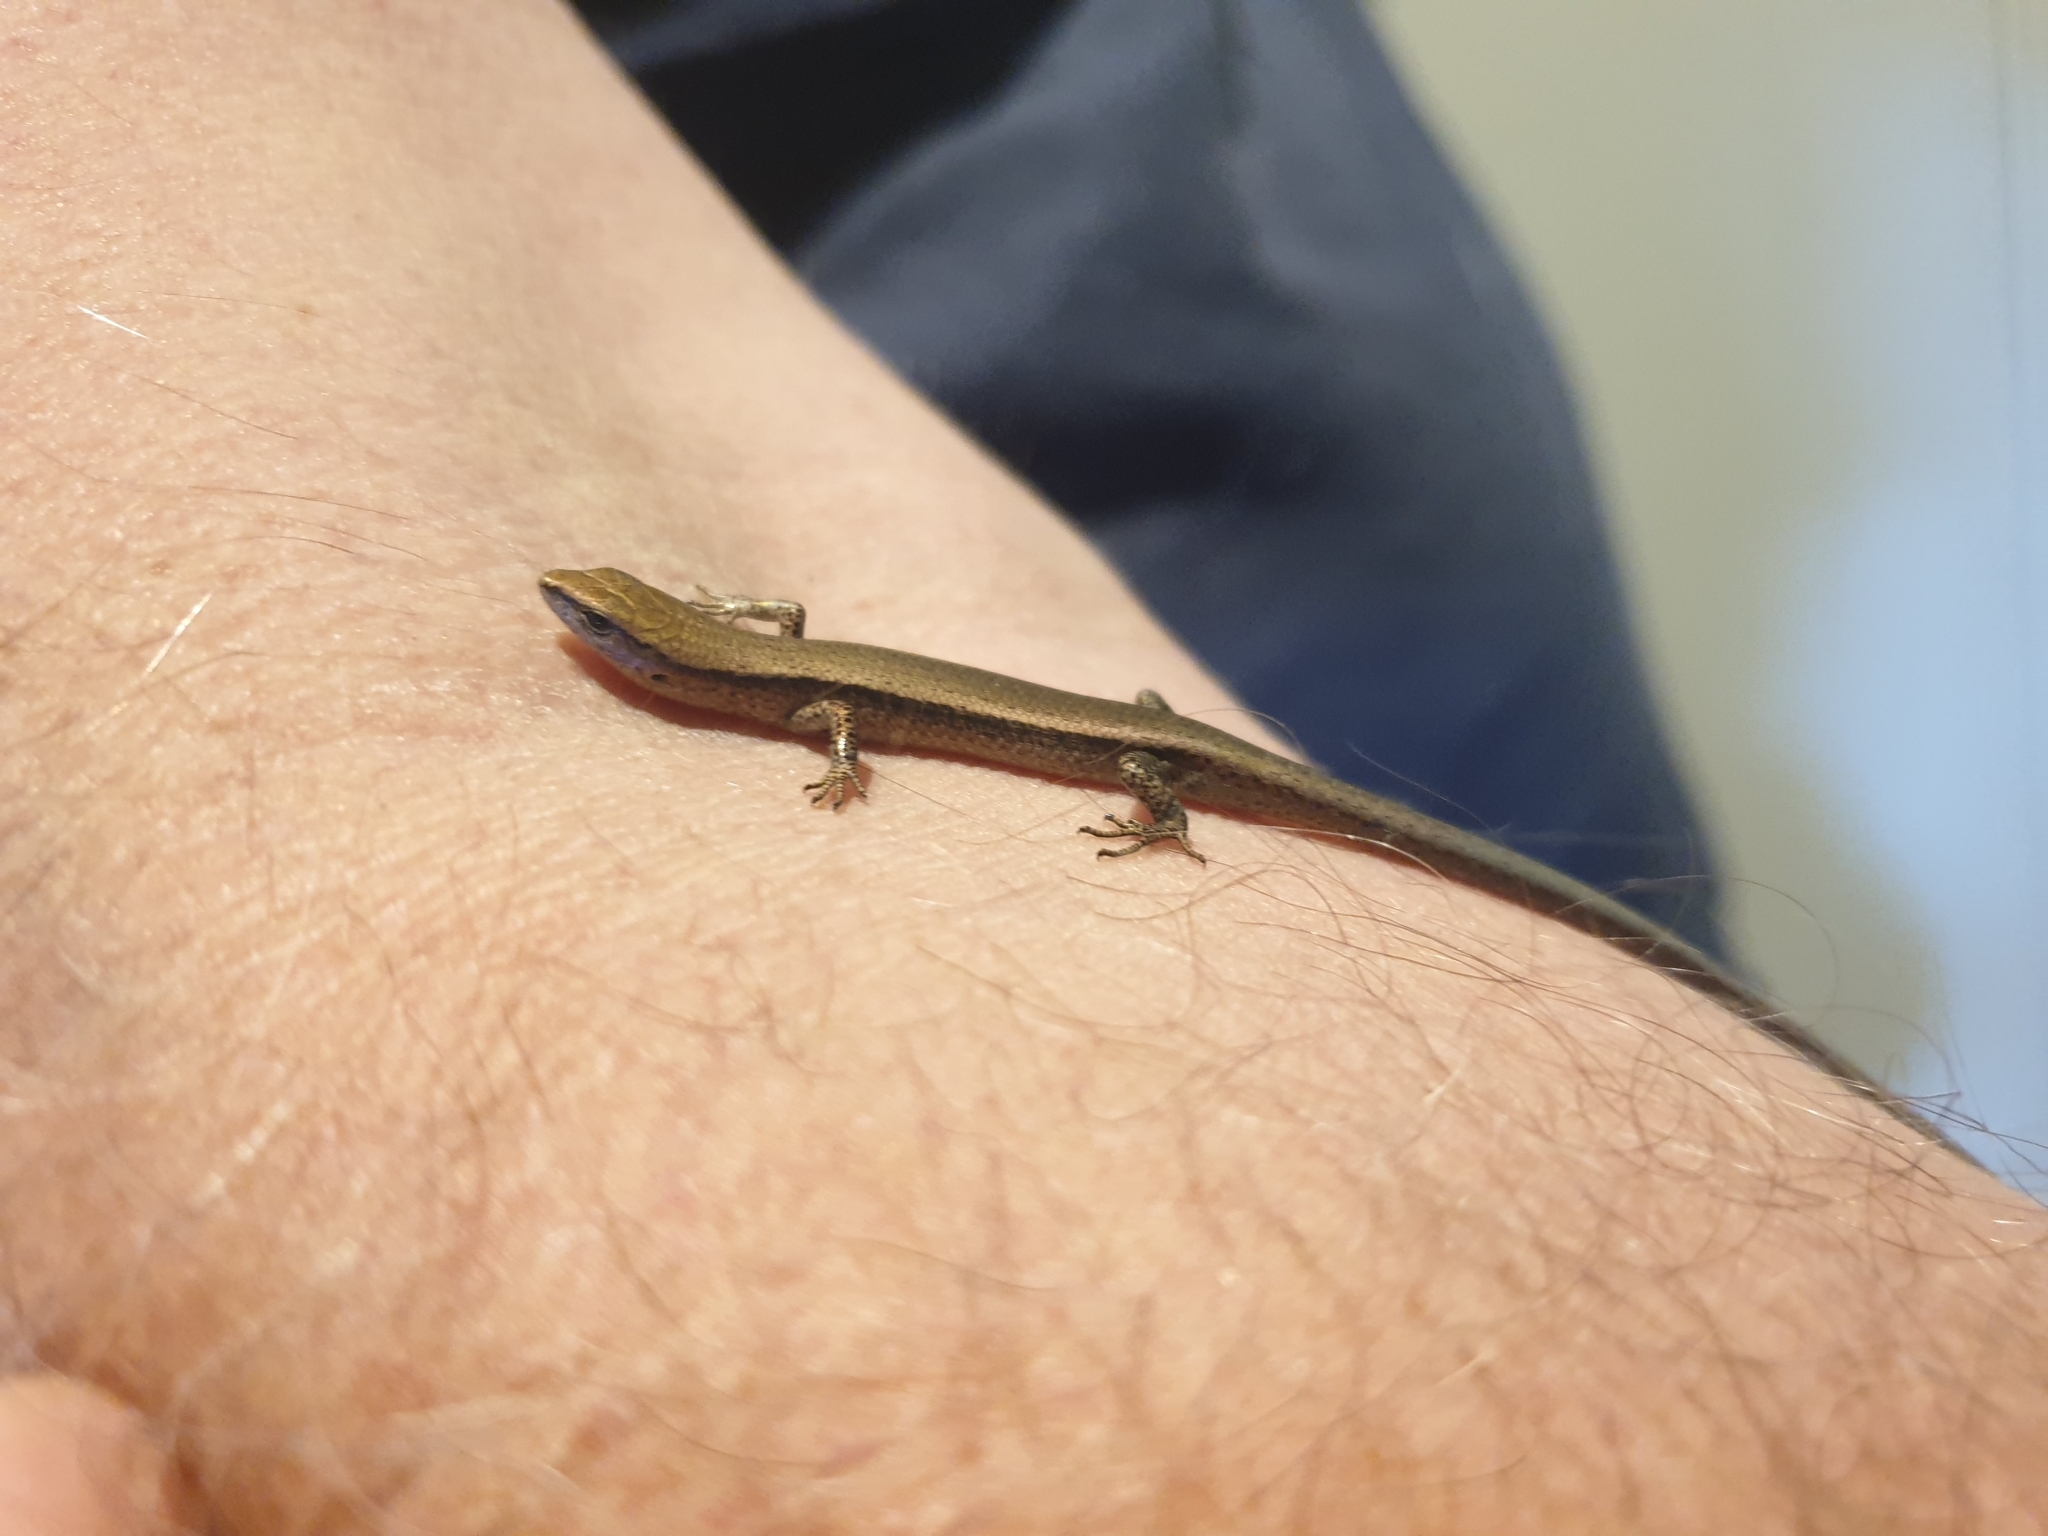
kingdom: Animalia
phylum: Chordata
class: Squamata
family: Scincidae
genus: Lampropholis
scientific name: Lampropholis delicata
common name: Plague skink
